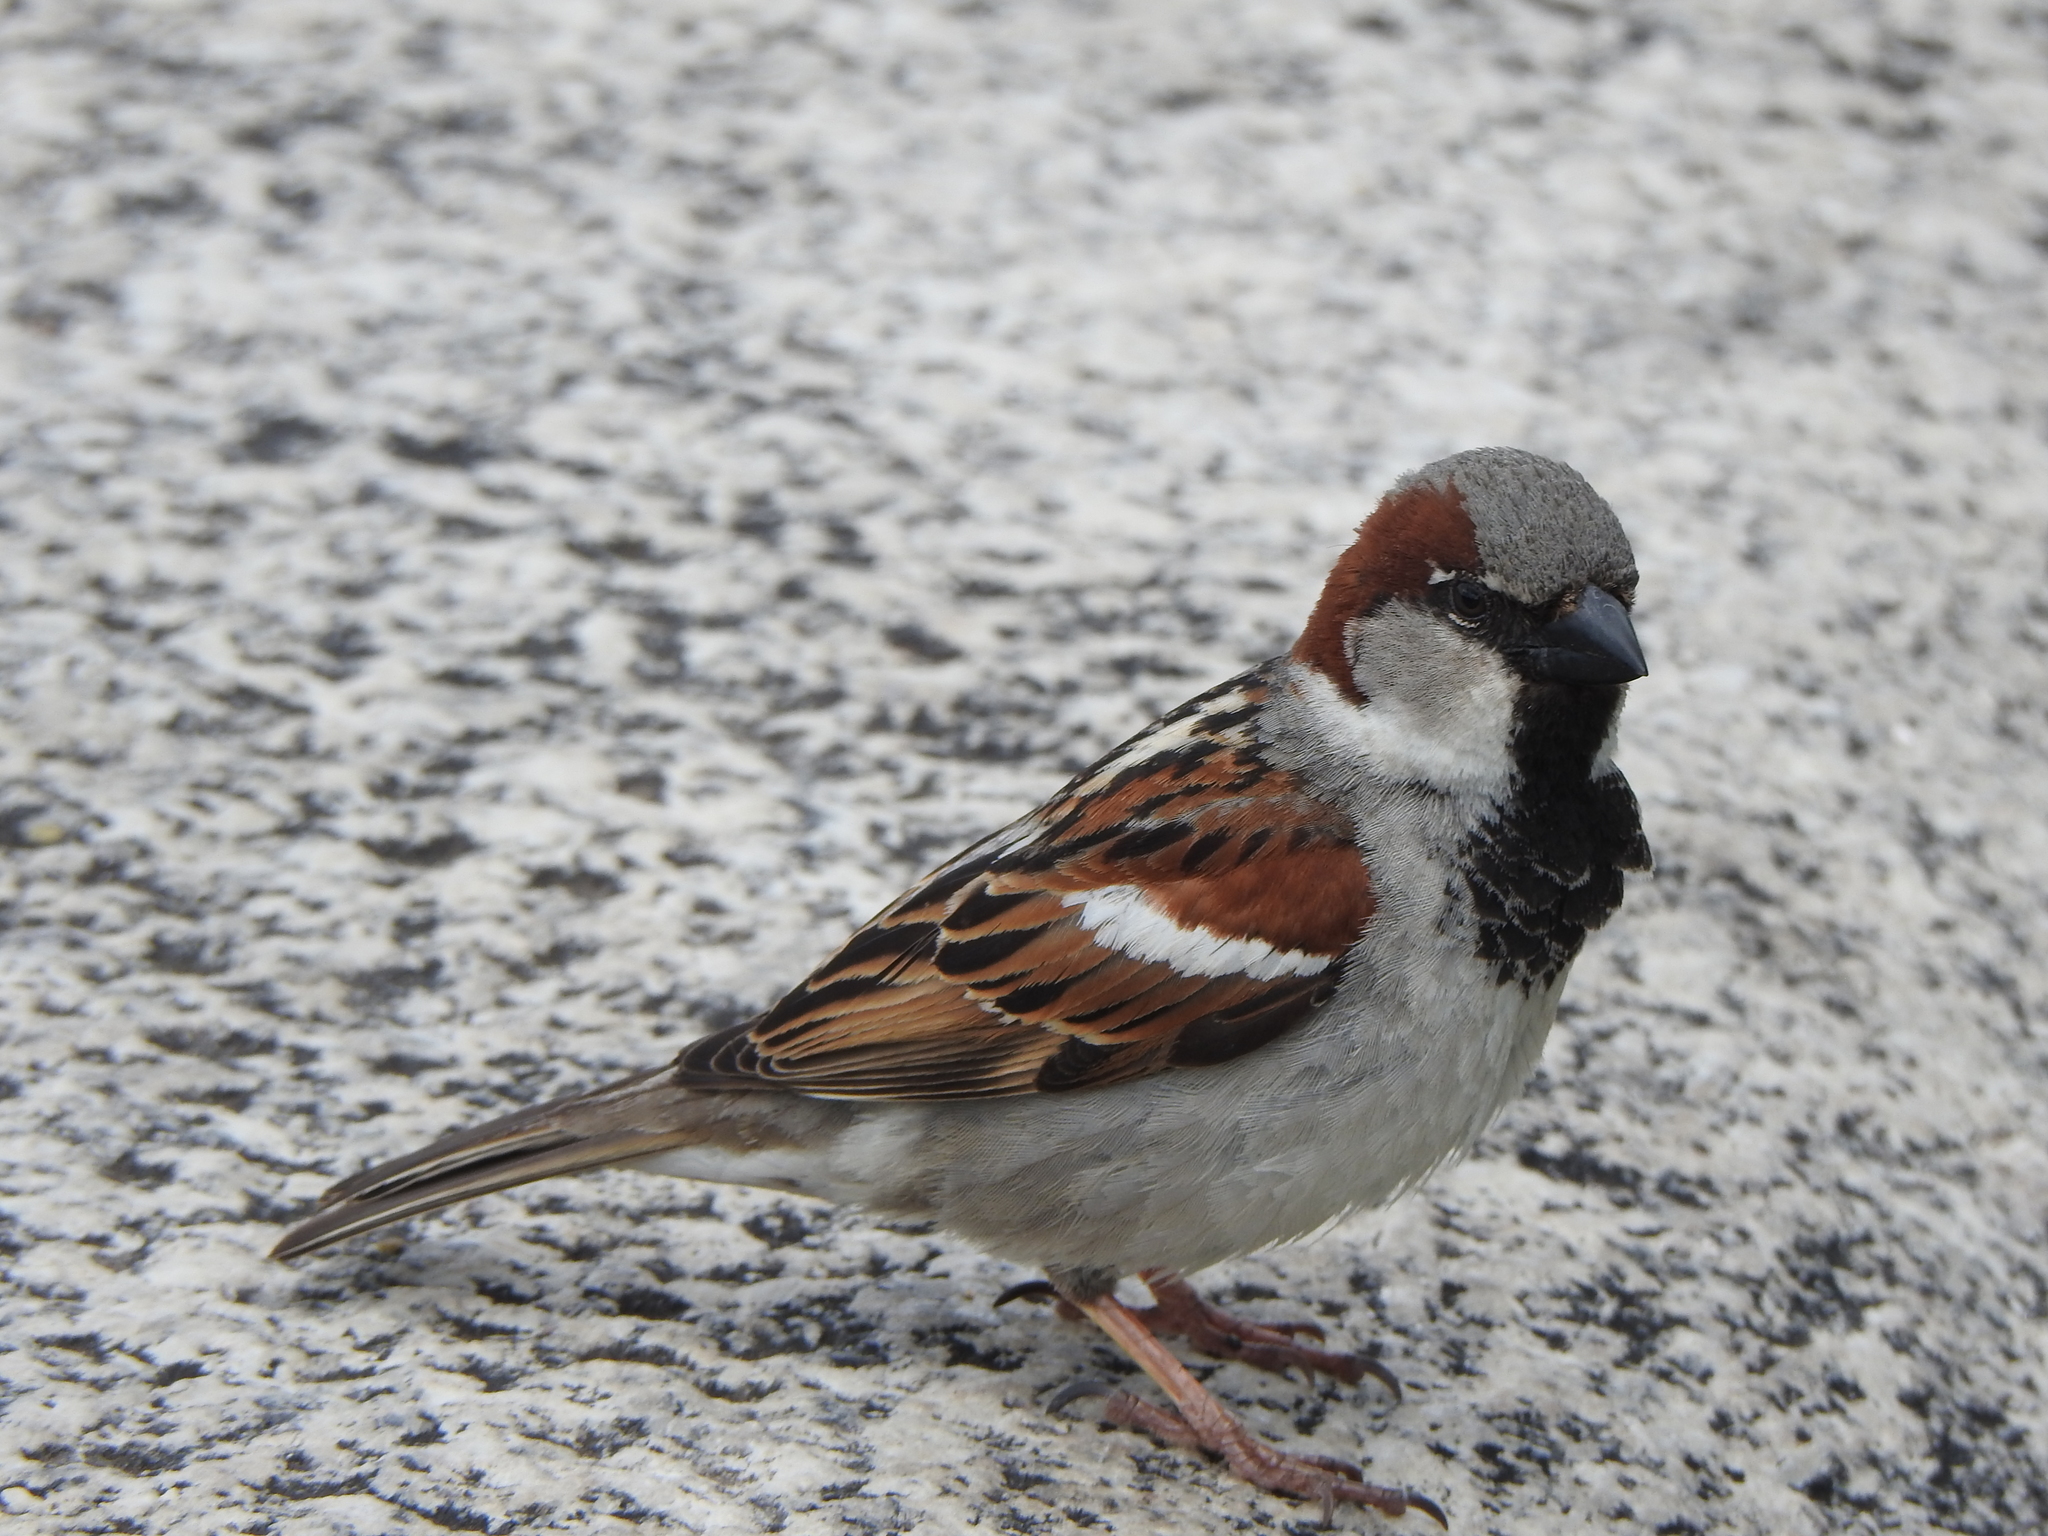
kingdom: Animalia
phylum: Chordata
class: Aves
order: Passeriformes
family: Passeridae
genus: Passer
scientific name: Passer domesticus
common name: House sparrow
